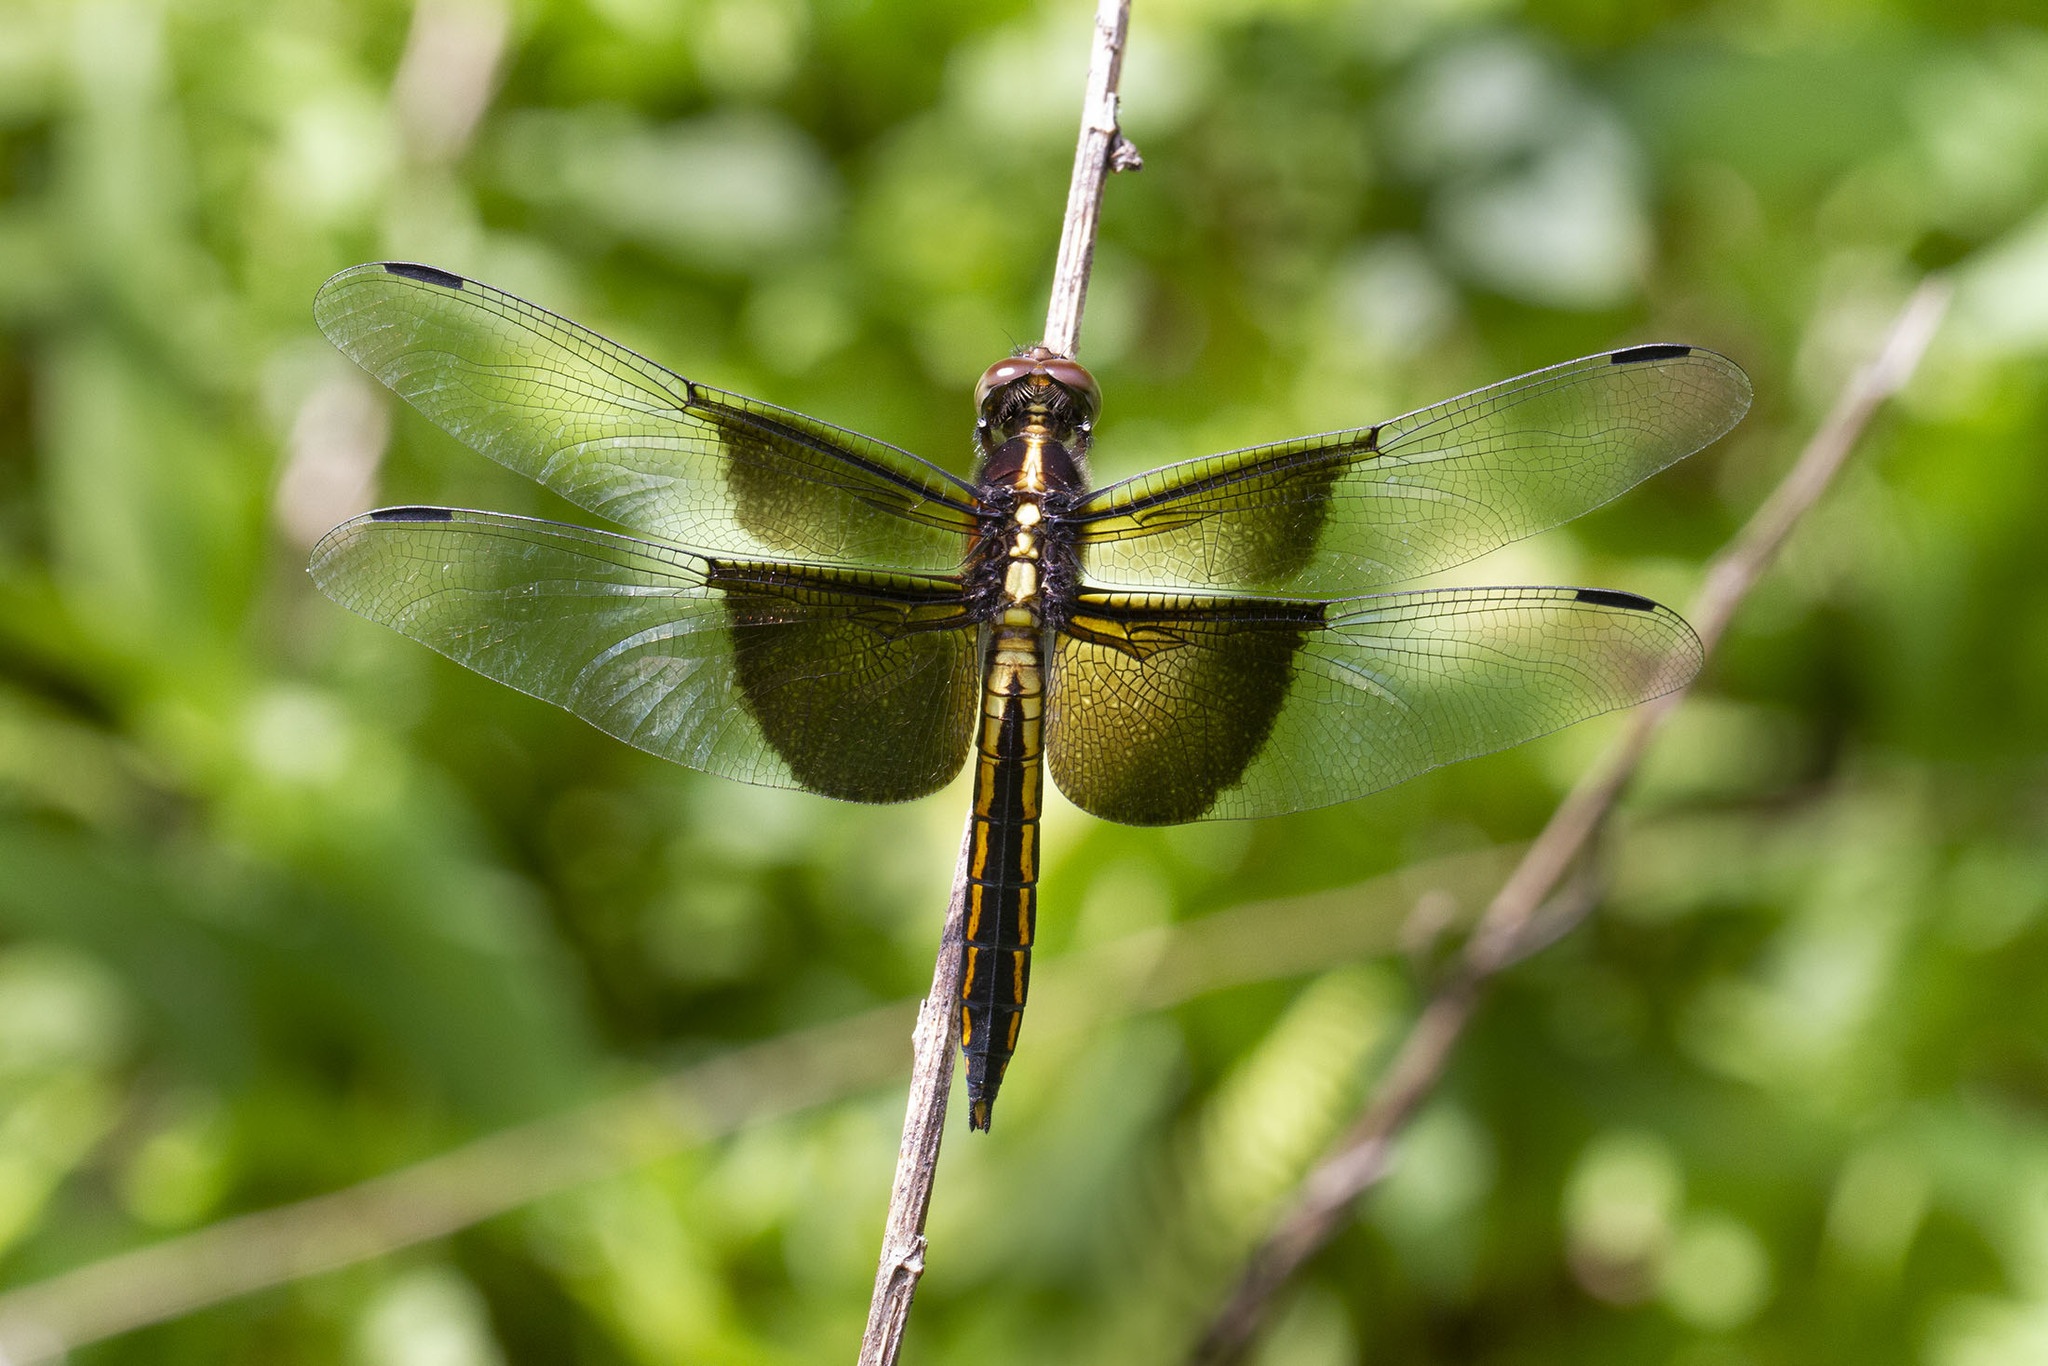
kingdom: Animalia
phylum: Arthropoda
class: Insecta
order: Odonata
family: Libellulidae
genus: Libellula
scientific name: Libellula luctuosa
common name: Widow skimmer
